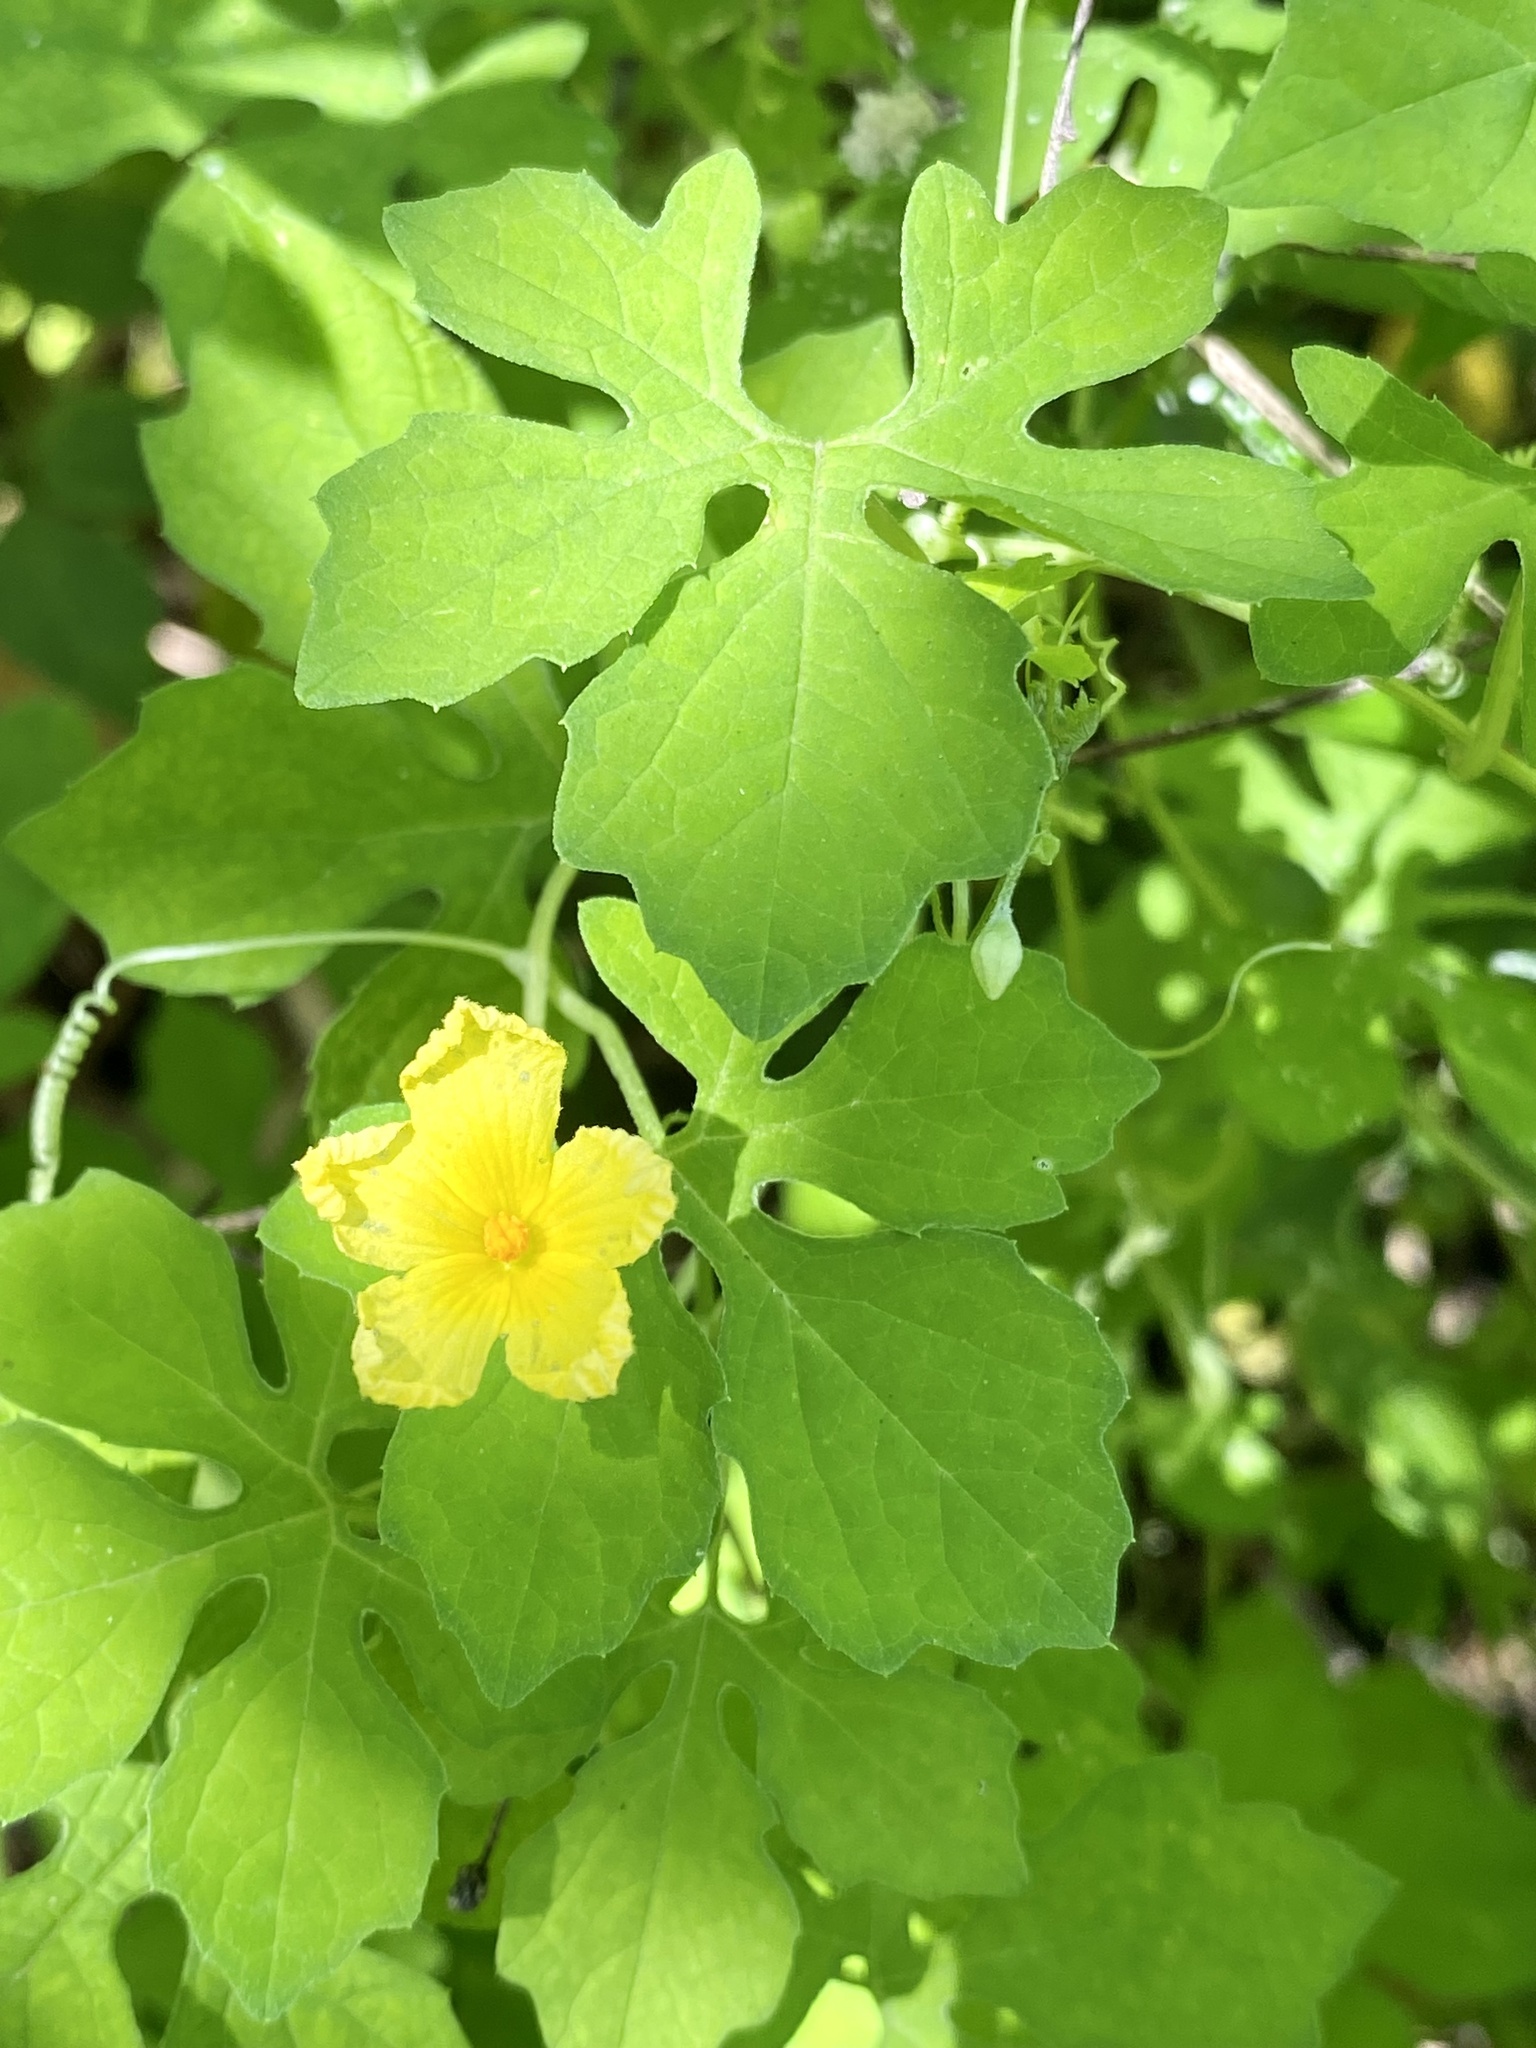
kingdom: Plantae
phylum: Tracheophyta
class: Magnoliopsida
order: Cucurbitales
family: Cucurbitaceae
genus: Momordica
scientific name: Momordica charantia
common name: Balsampear
